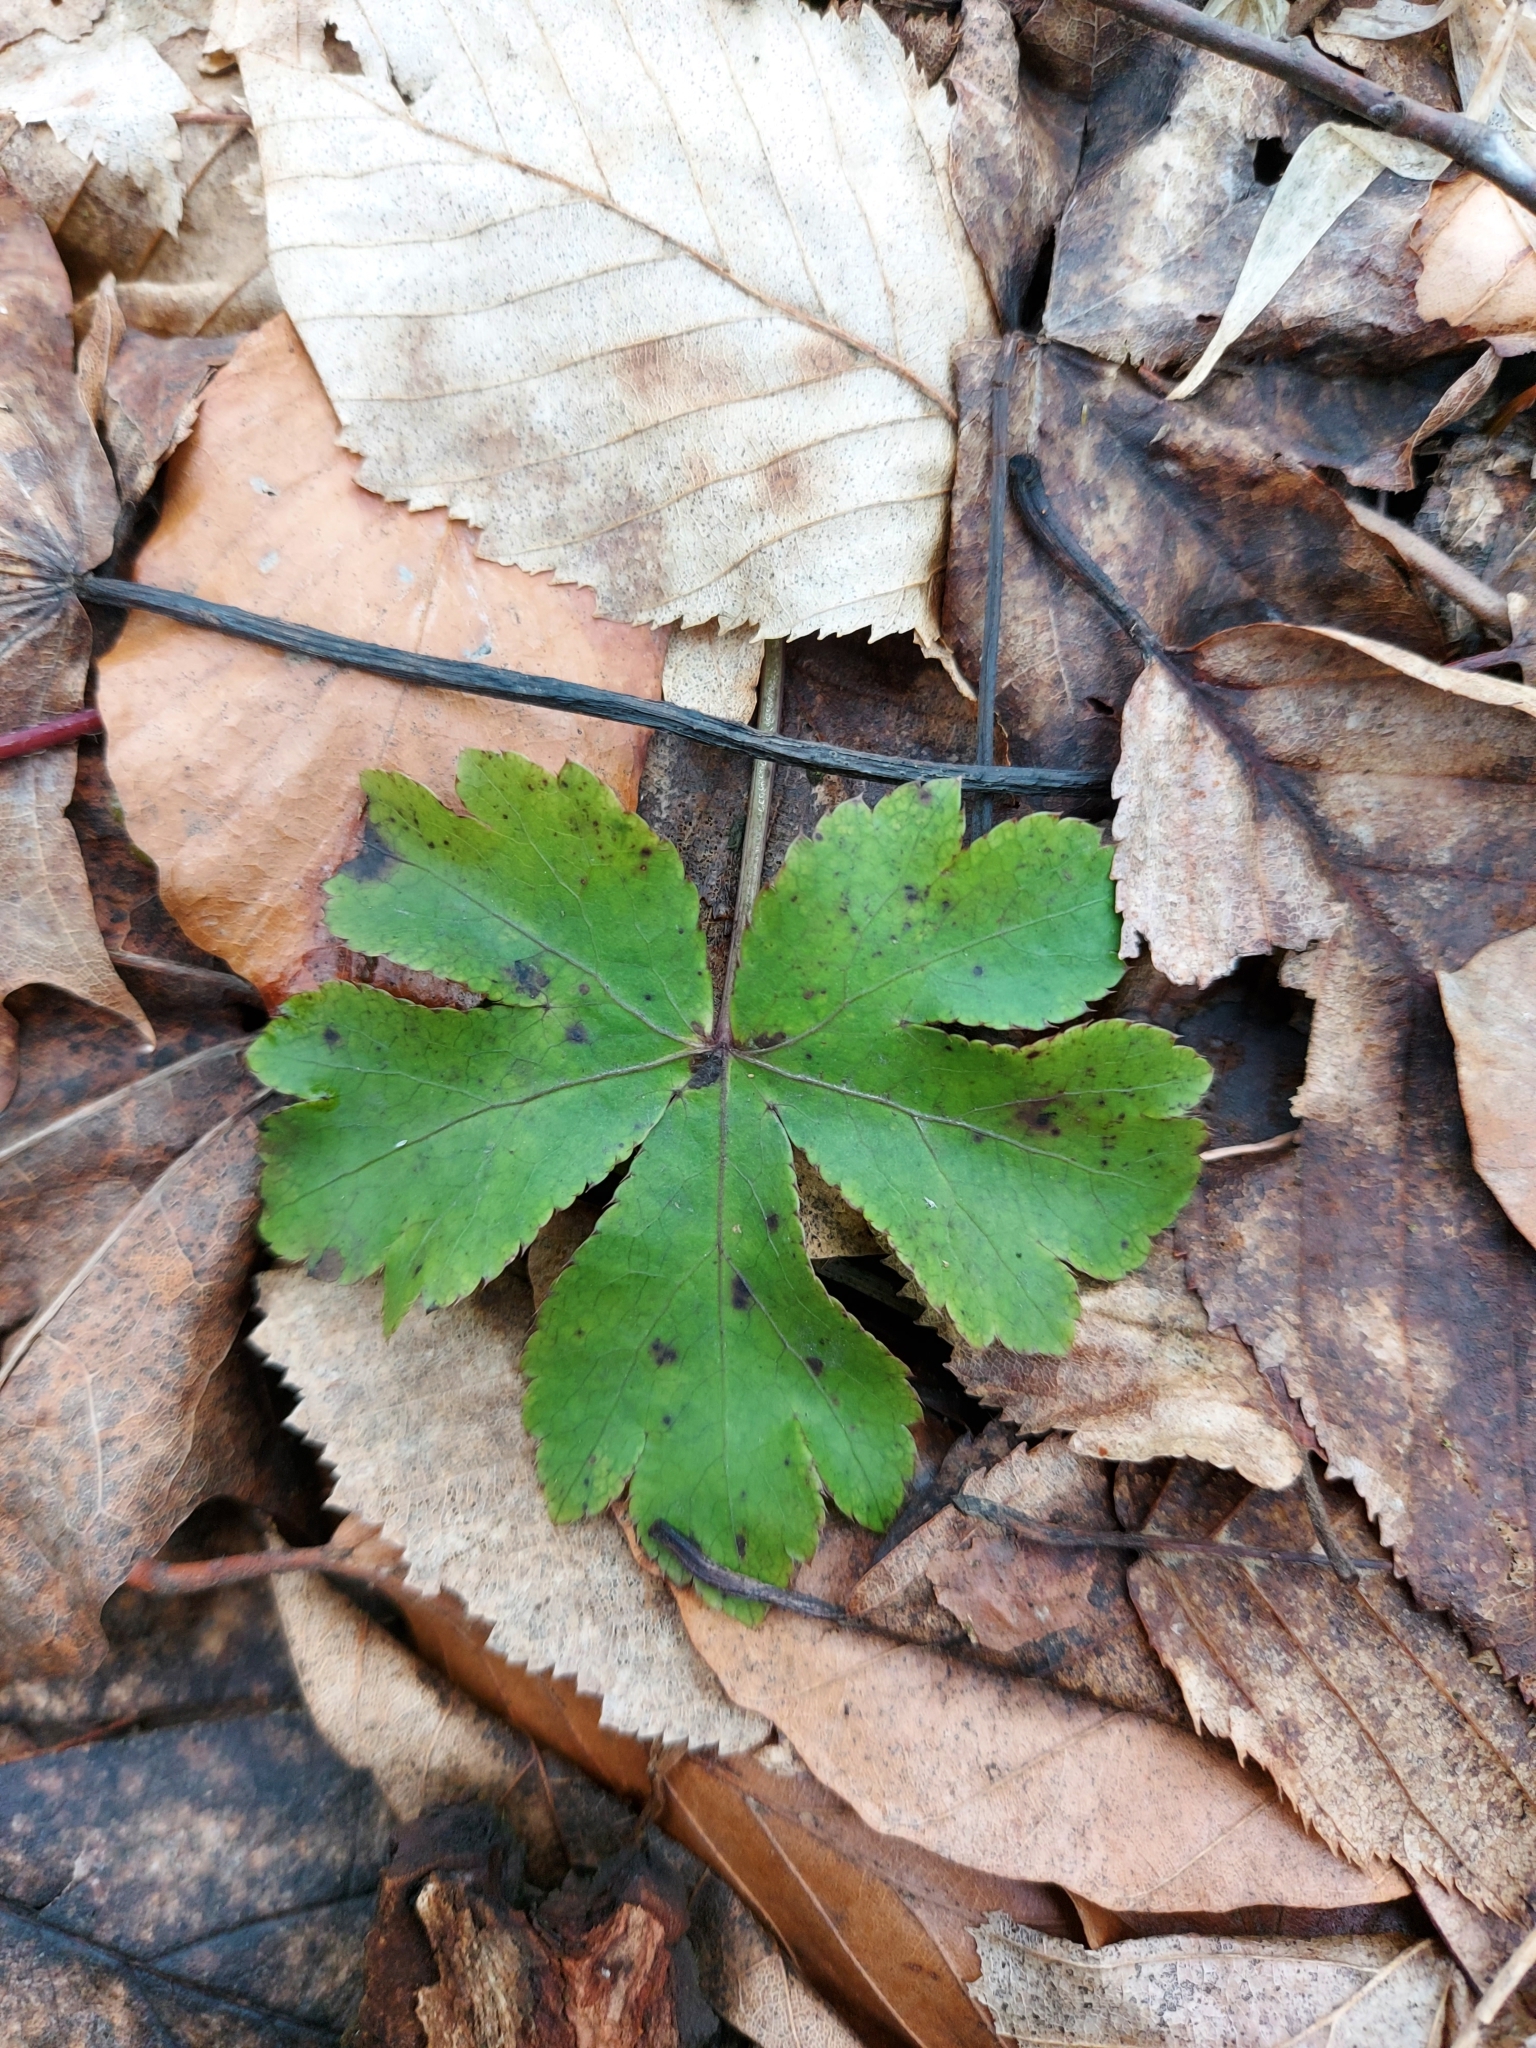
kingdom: Plantae
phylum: Tracheophyta
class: Magnoliopsida
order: Apiales
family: Apiaceae
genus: Sanicula
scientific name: Sanicula europaea
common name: Sanicle
